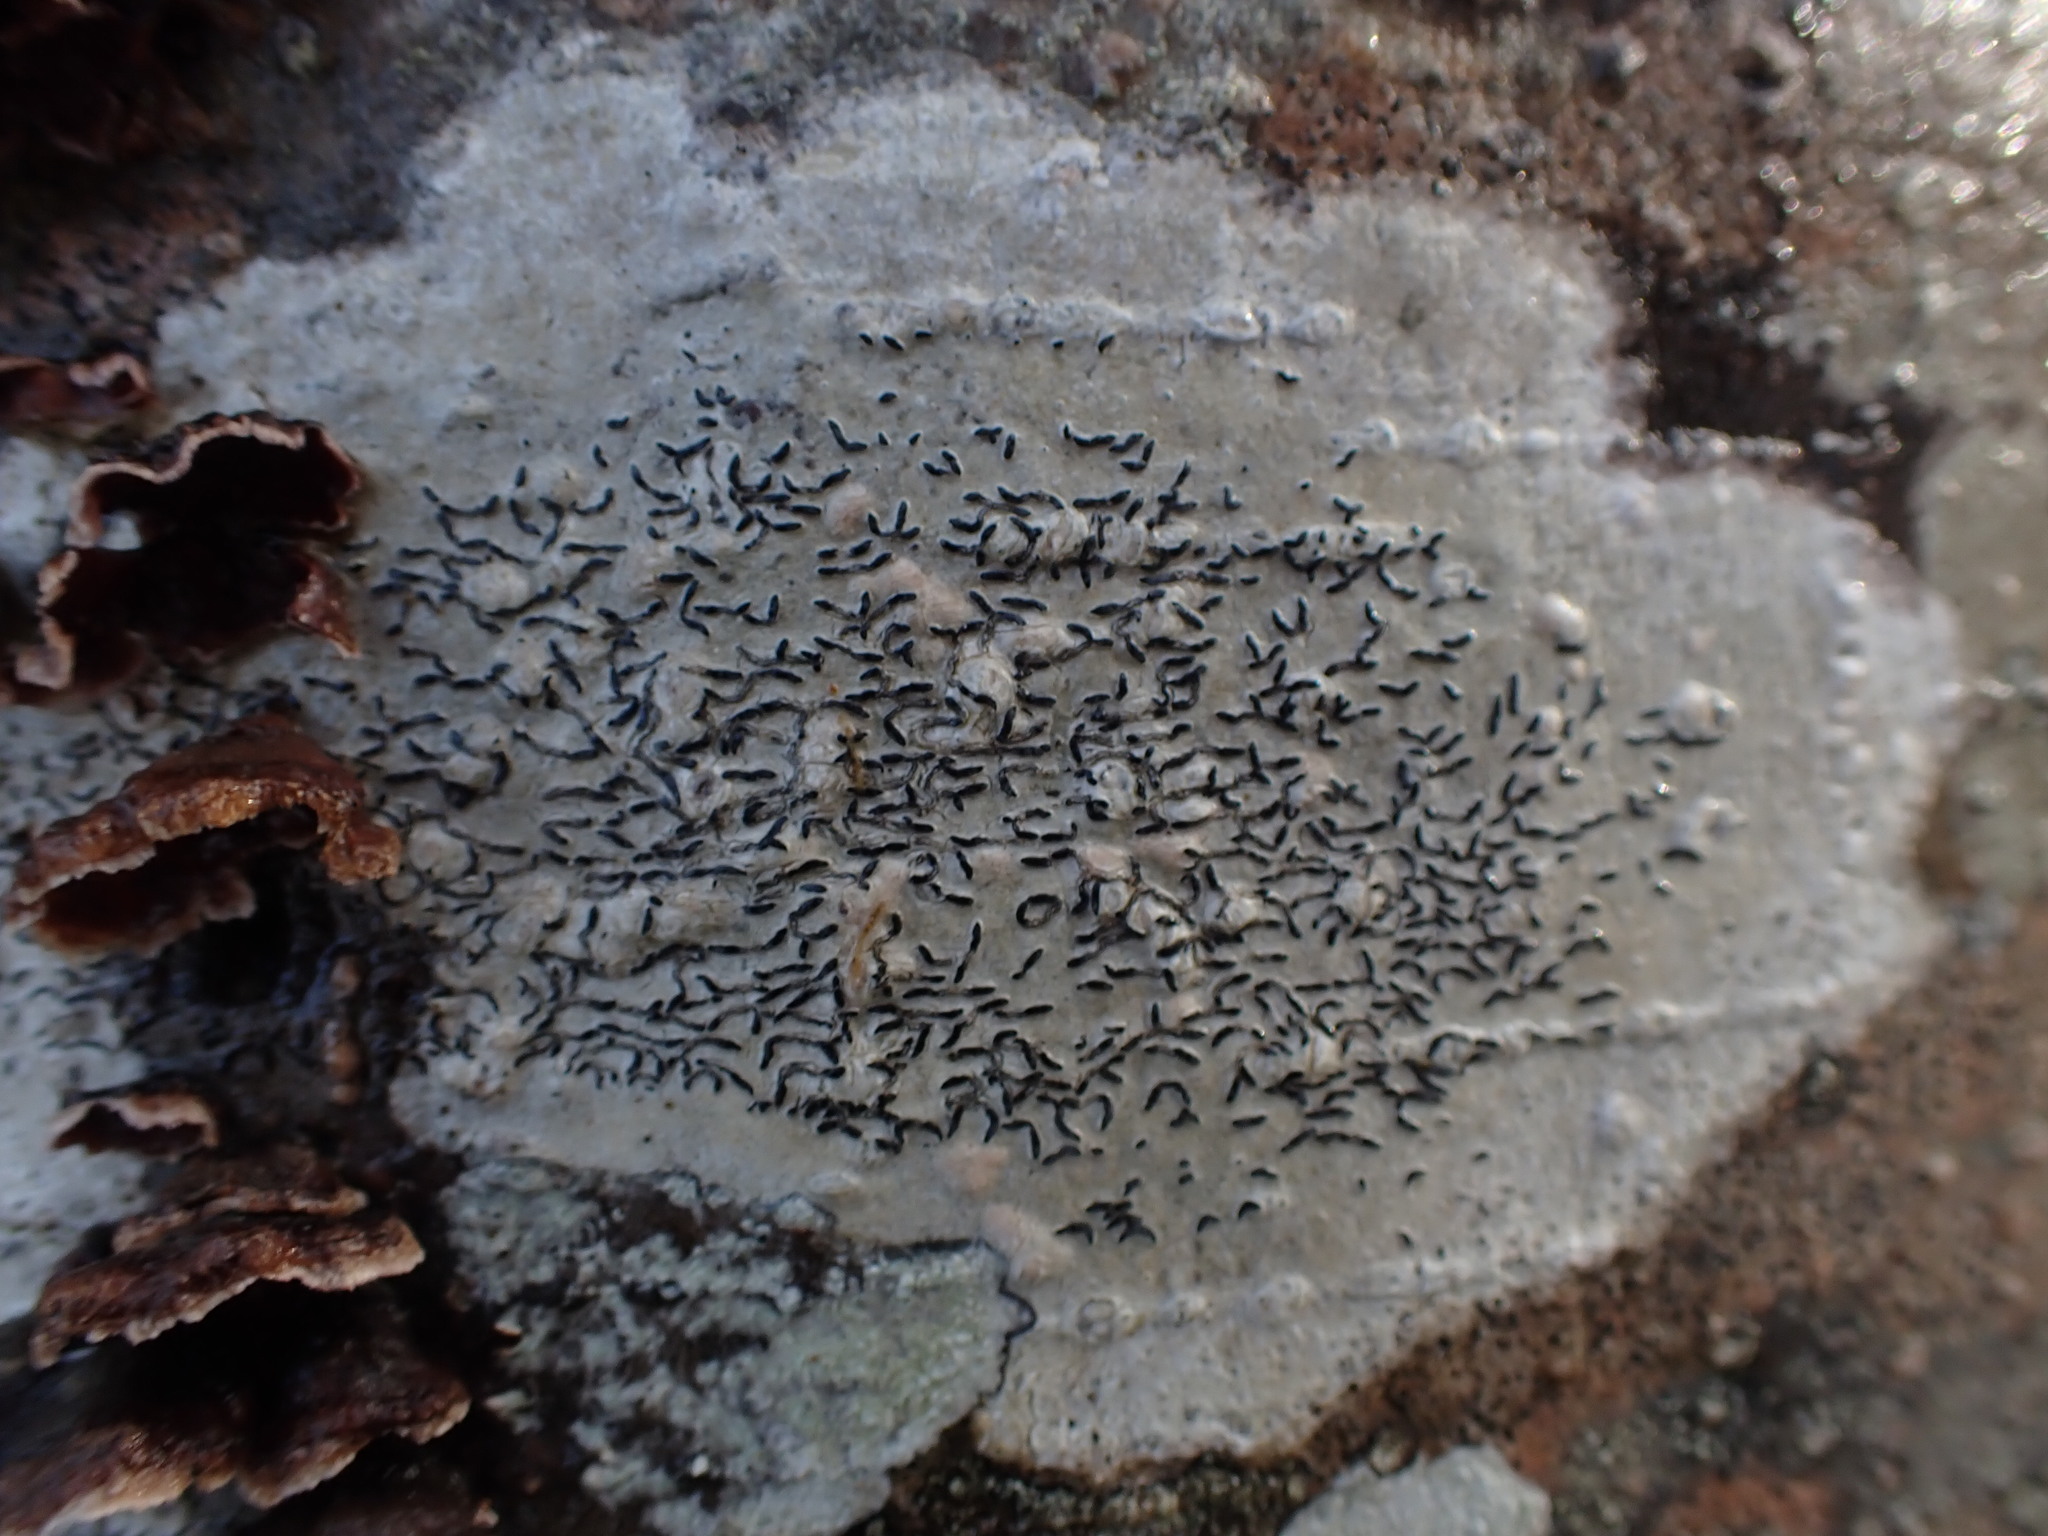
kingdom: Fungi
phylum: Ascomycota
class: Lecanoromycetes
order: Ostropales
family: Graphidaceae
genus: Graphis
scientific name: Graphis scripta
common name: Script lichen
